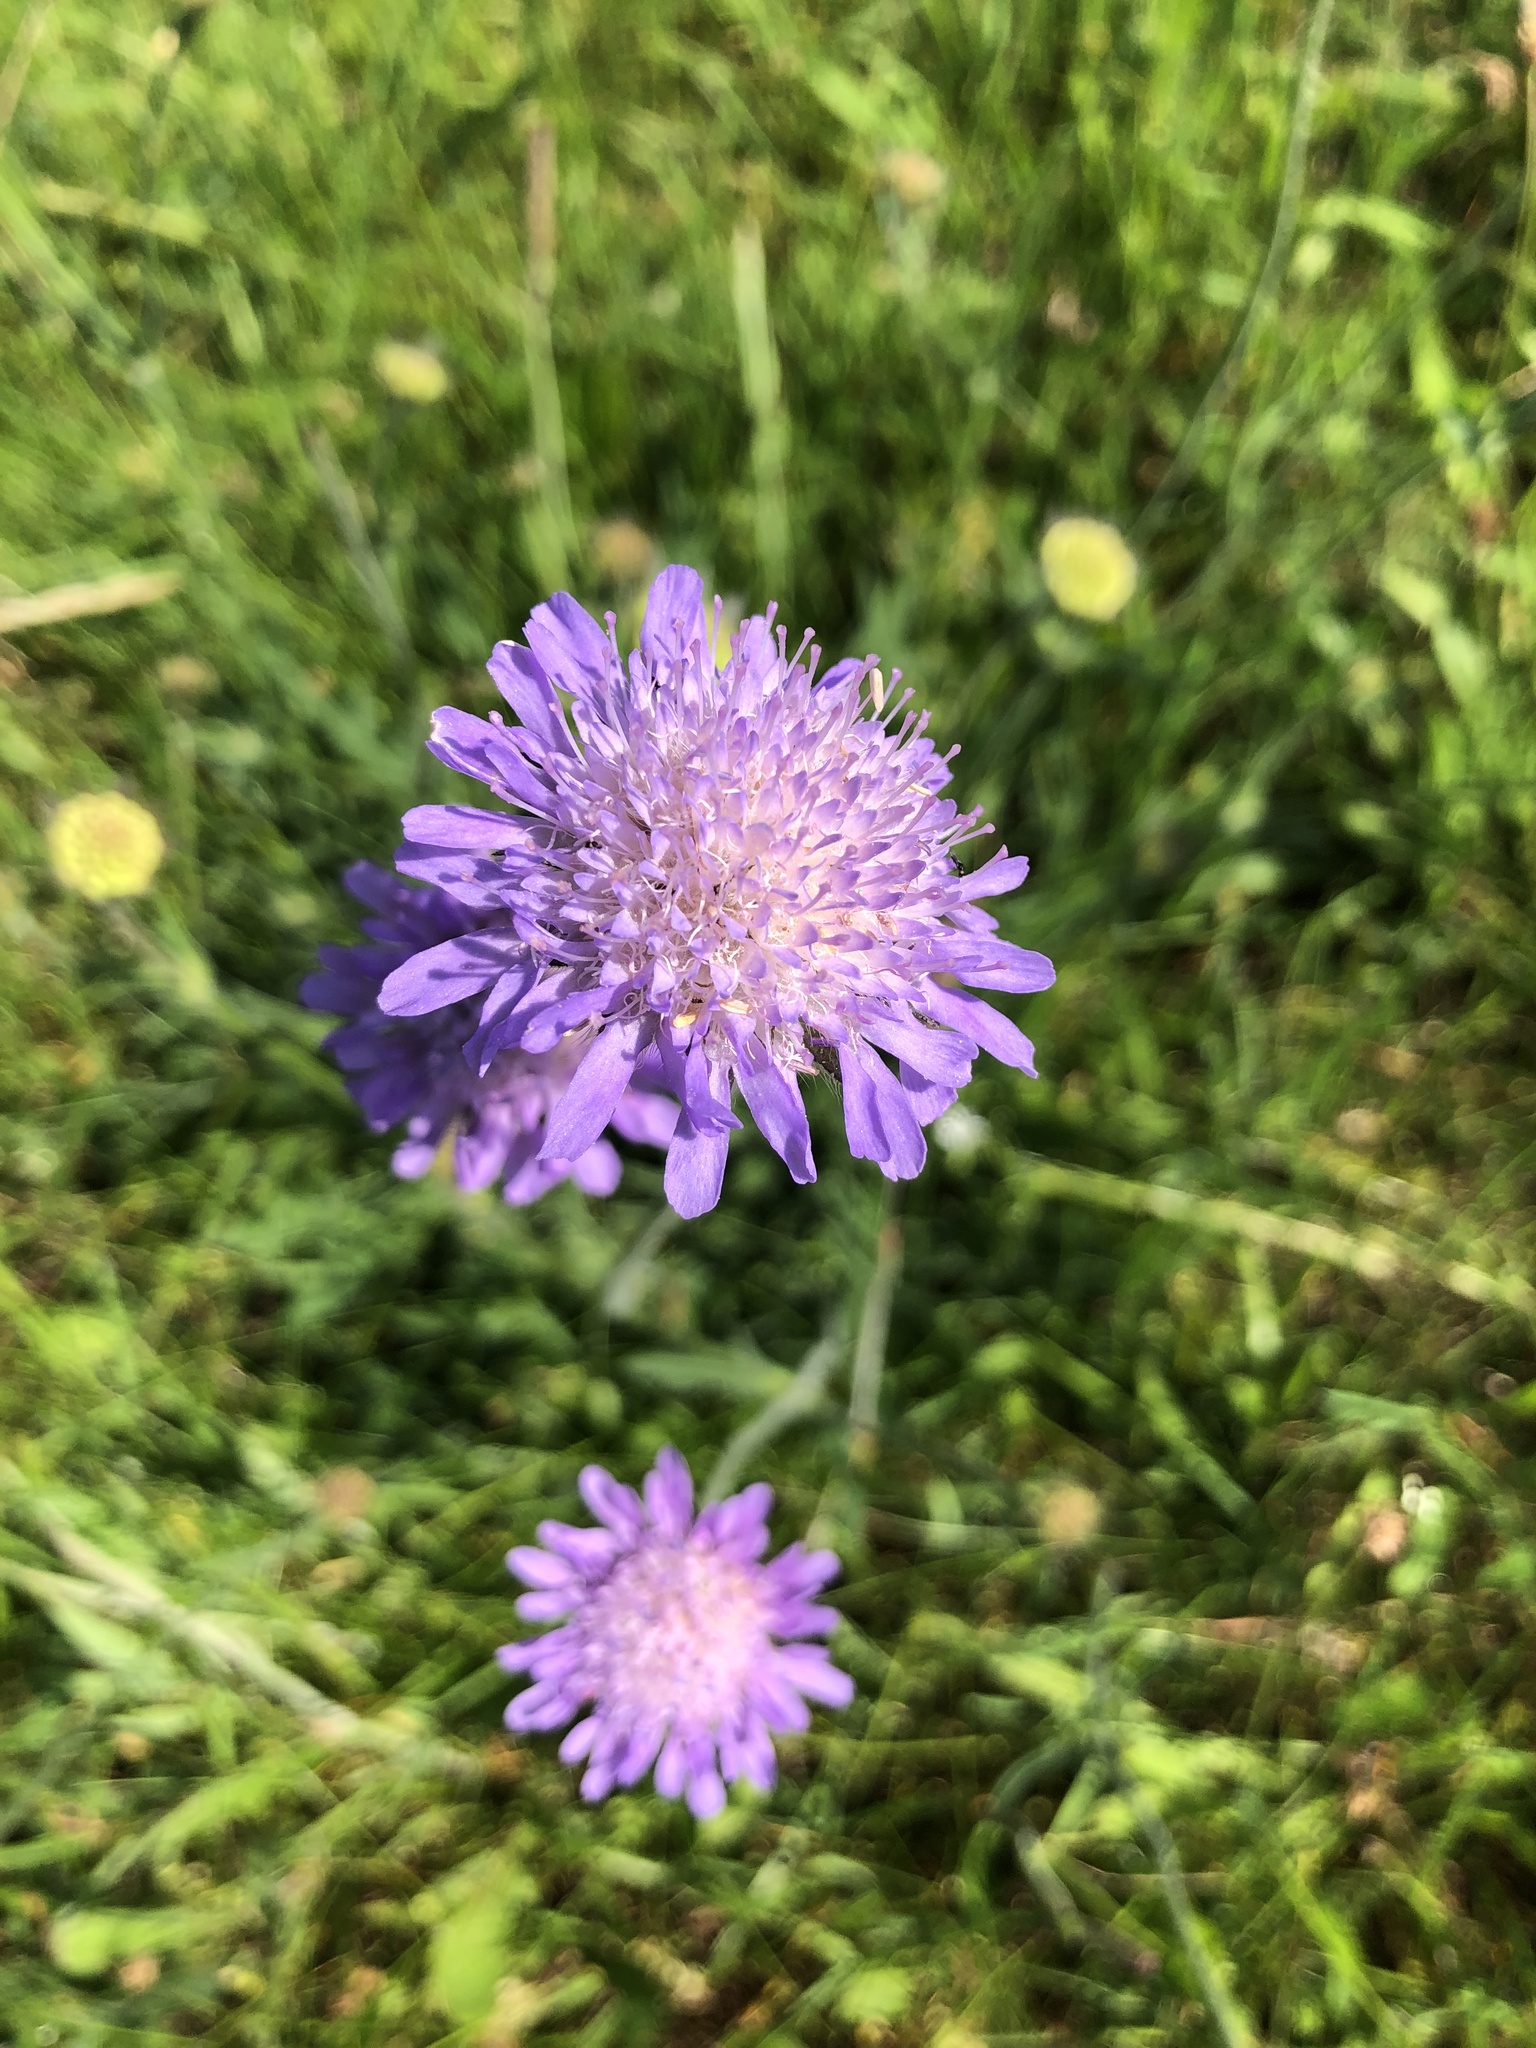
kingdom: Plantae
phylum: Tracheophyta
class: Magnoliopsida
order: Dipsacales
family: Caprifoliaceae
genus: Knautia
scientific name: Knautia arvensis
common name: Field scabiosa
